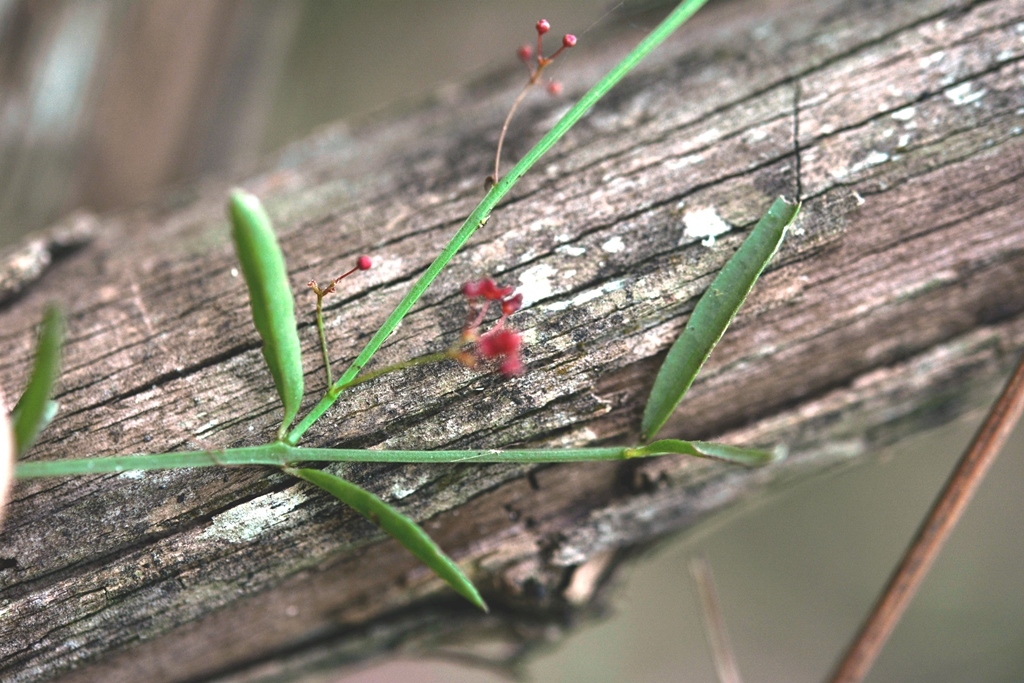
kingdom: Plantae
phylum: Tracheophyta
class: Magnoliopsida
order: Celastrales
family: Celastraceae
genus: Crossopetalum
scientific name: Crossopetalum uragoga
